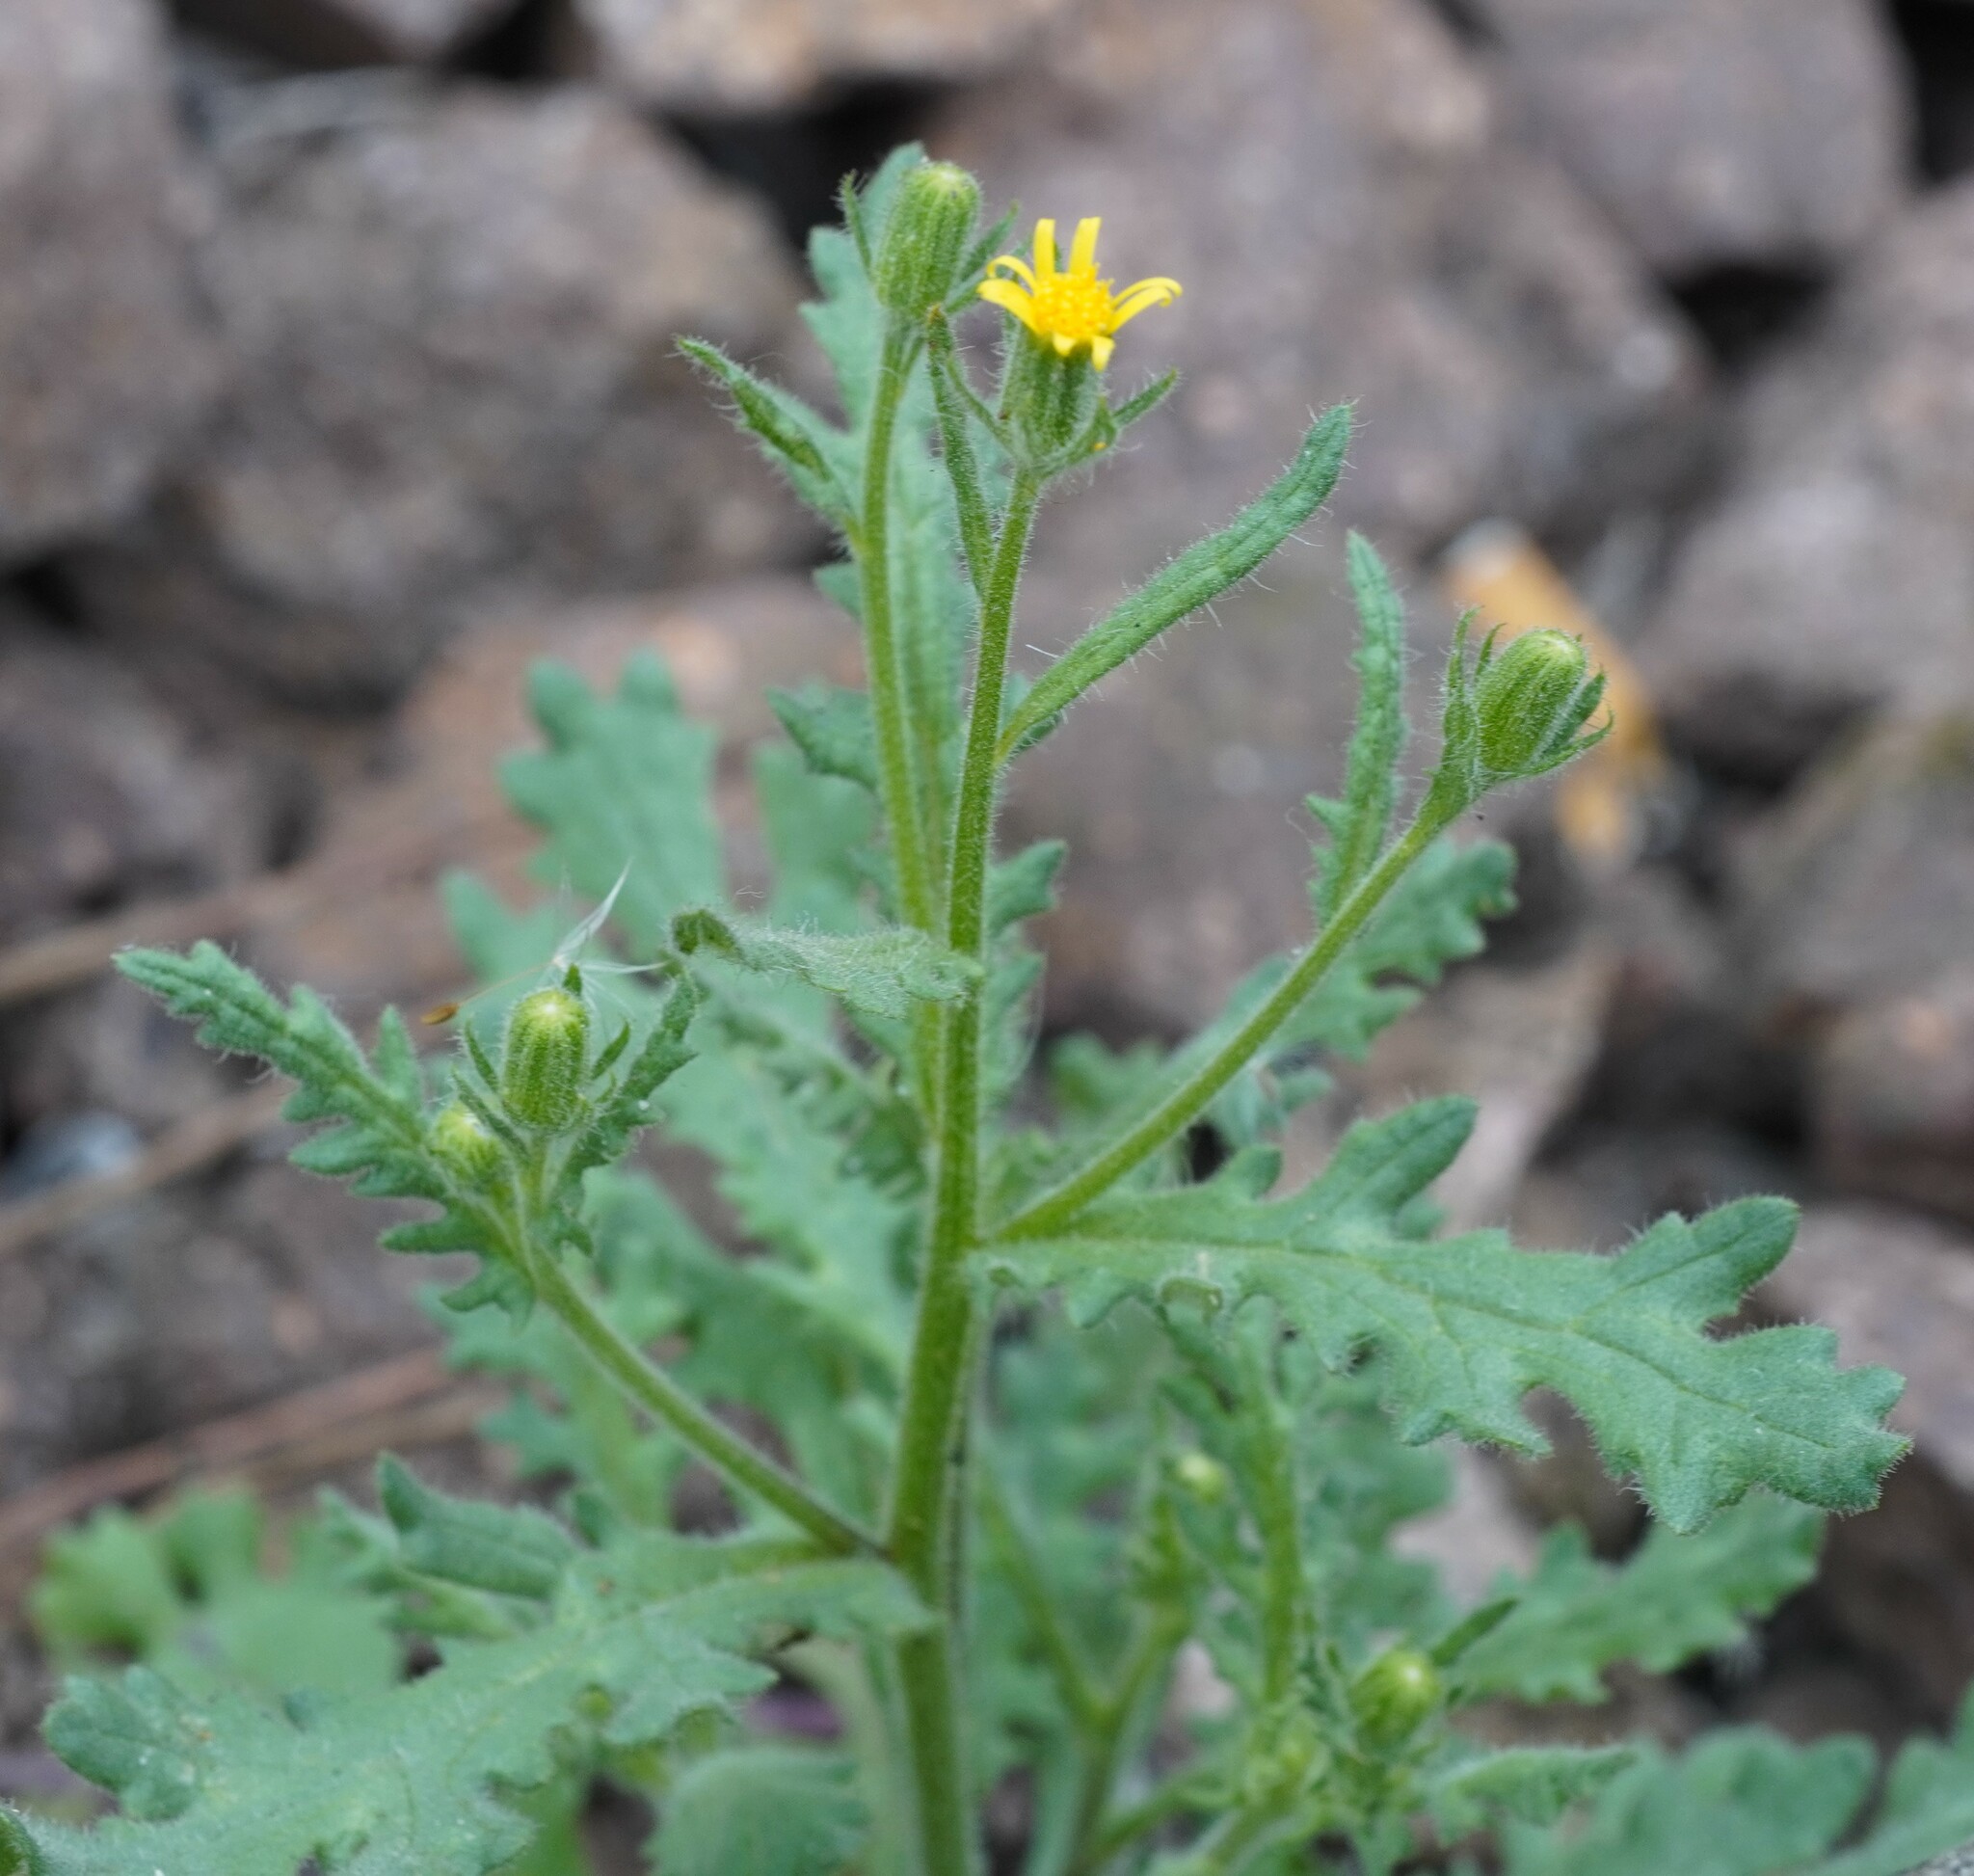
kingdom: Plantae
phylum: Tracheophyta
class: Magnoliopsida
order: Asterales
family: Asteraceae
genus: Senecio
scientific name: Senecio viscosus
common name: Sticky groundsel
